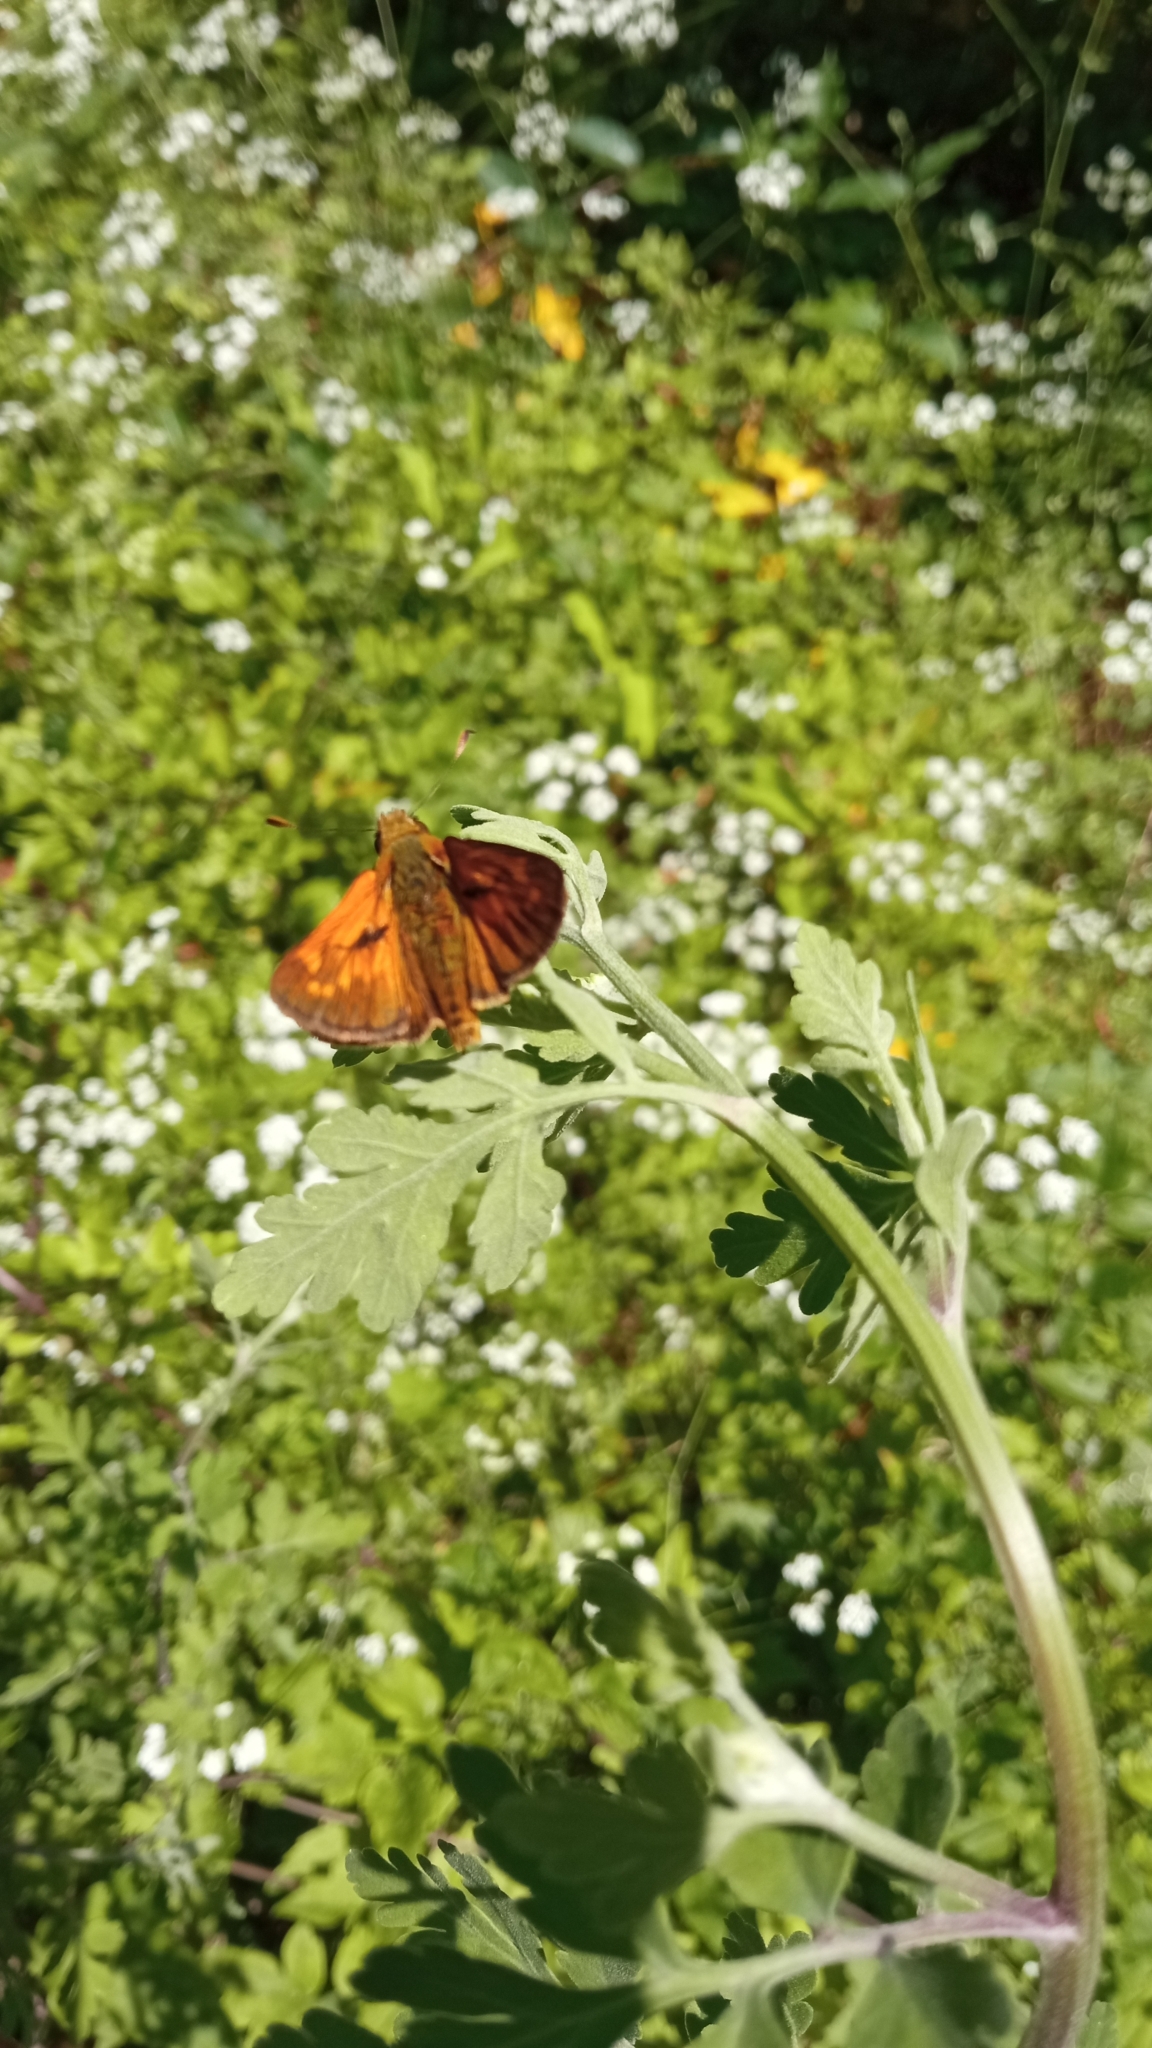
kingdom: Animalia
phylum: Arthropoda
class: Insecta
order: Lepidoptera
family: Hesperiidae
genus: Ochlodes
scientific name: Ochlodes venata
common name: Large skipper
